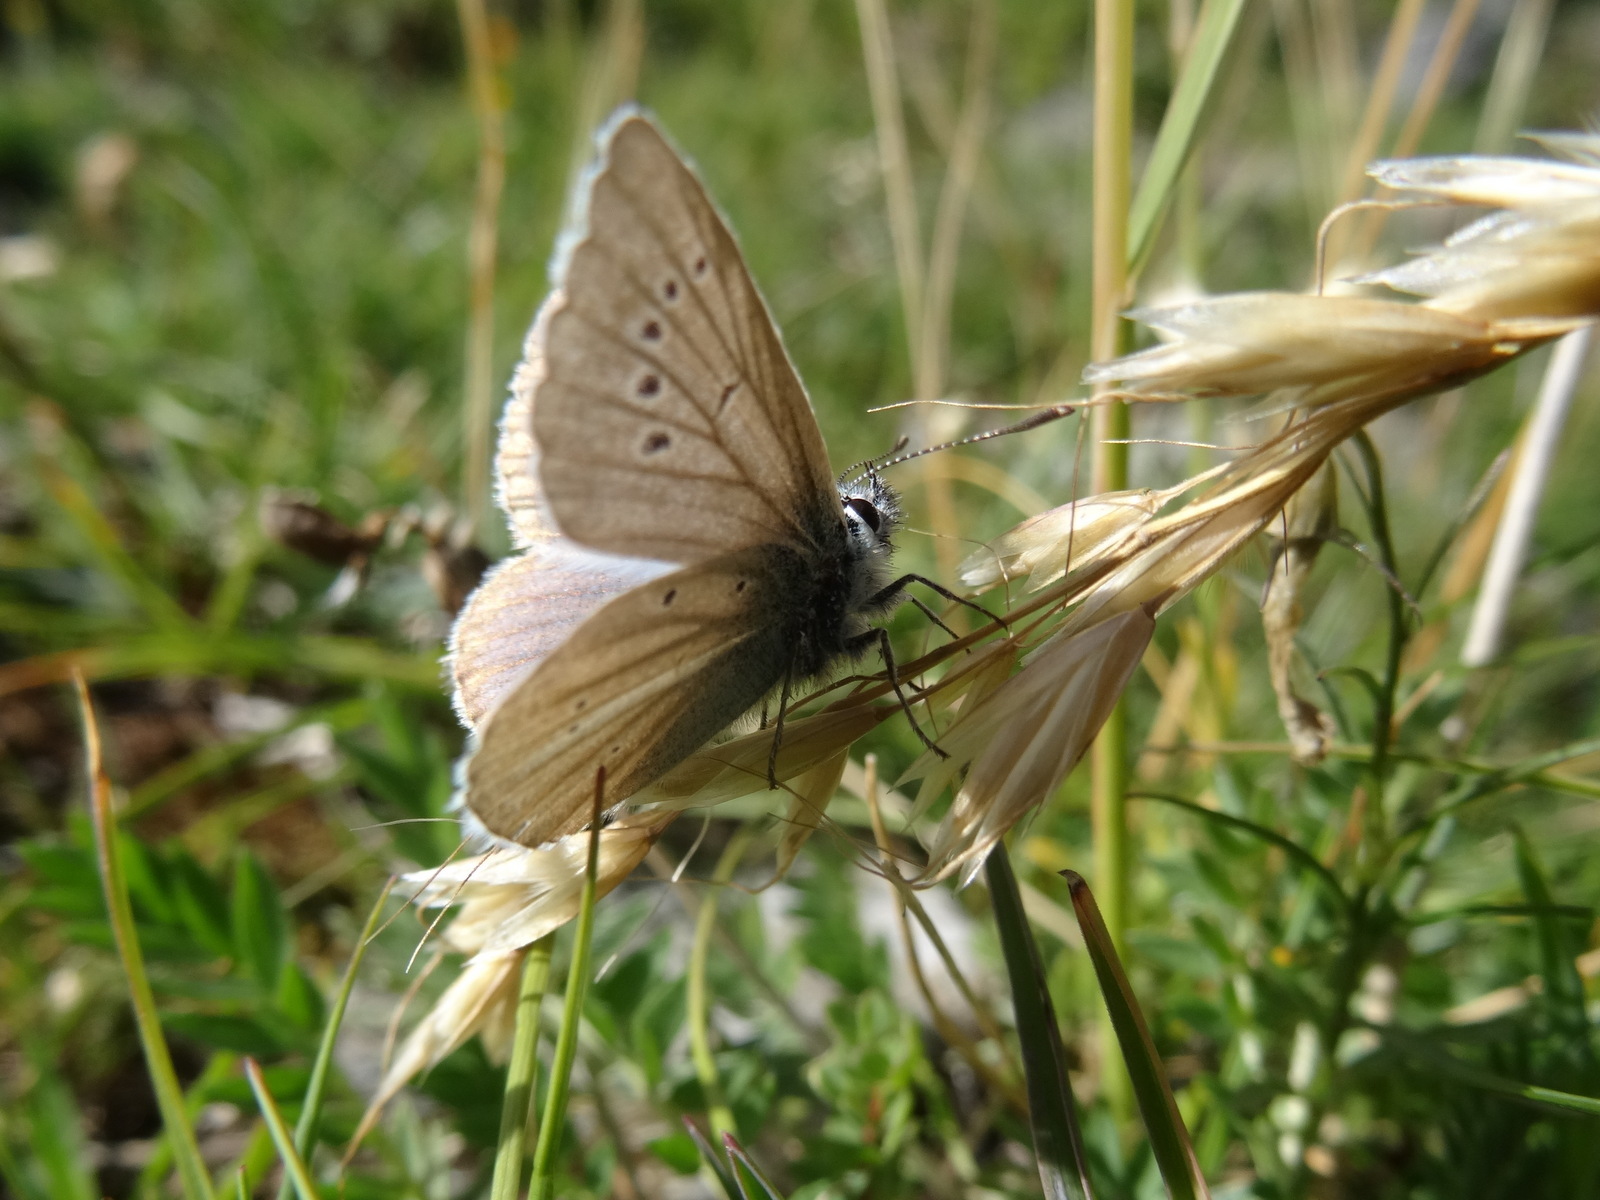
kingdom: Animalia
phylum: Arthropoda
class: Insecta
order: Lepidoptera
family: Lycaenidae
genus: Agrodiaetus
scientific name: Agrodiaetus damon
